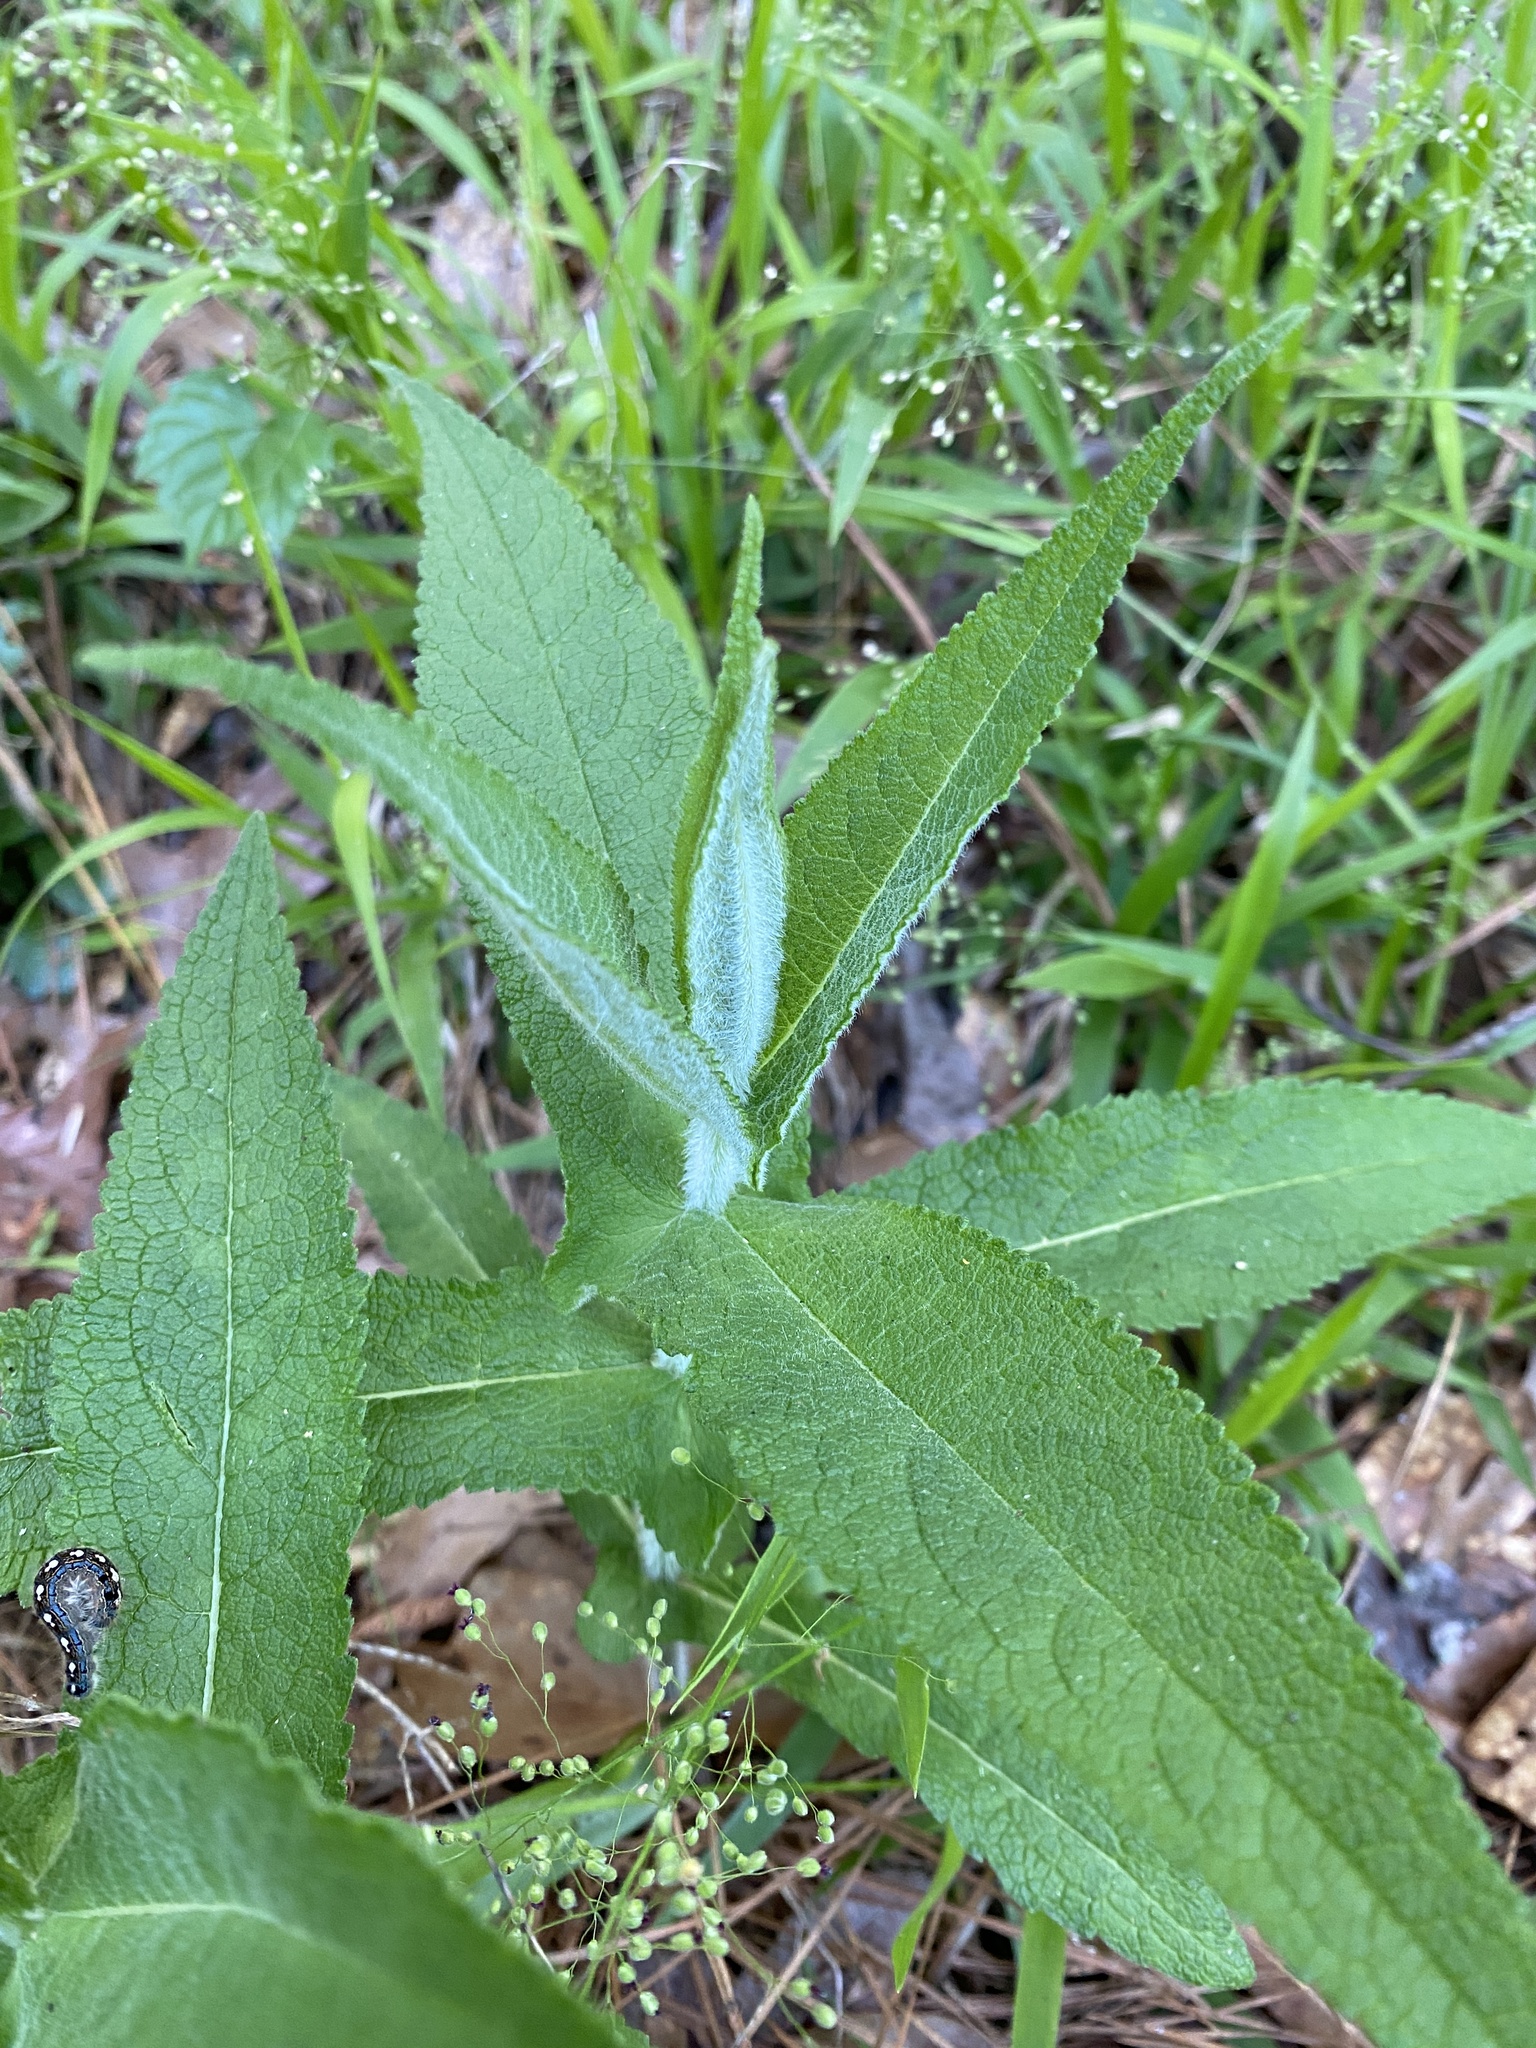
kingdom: Plantae
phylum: Tracheophyta
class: Magnoliopsida
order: Asterales
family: Asteraceae
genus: Eupatorium
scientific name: Eupatorium perfoliatum
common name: Boneset
